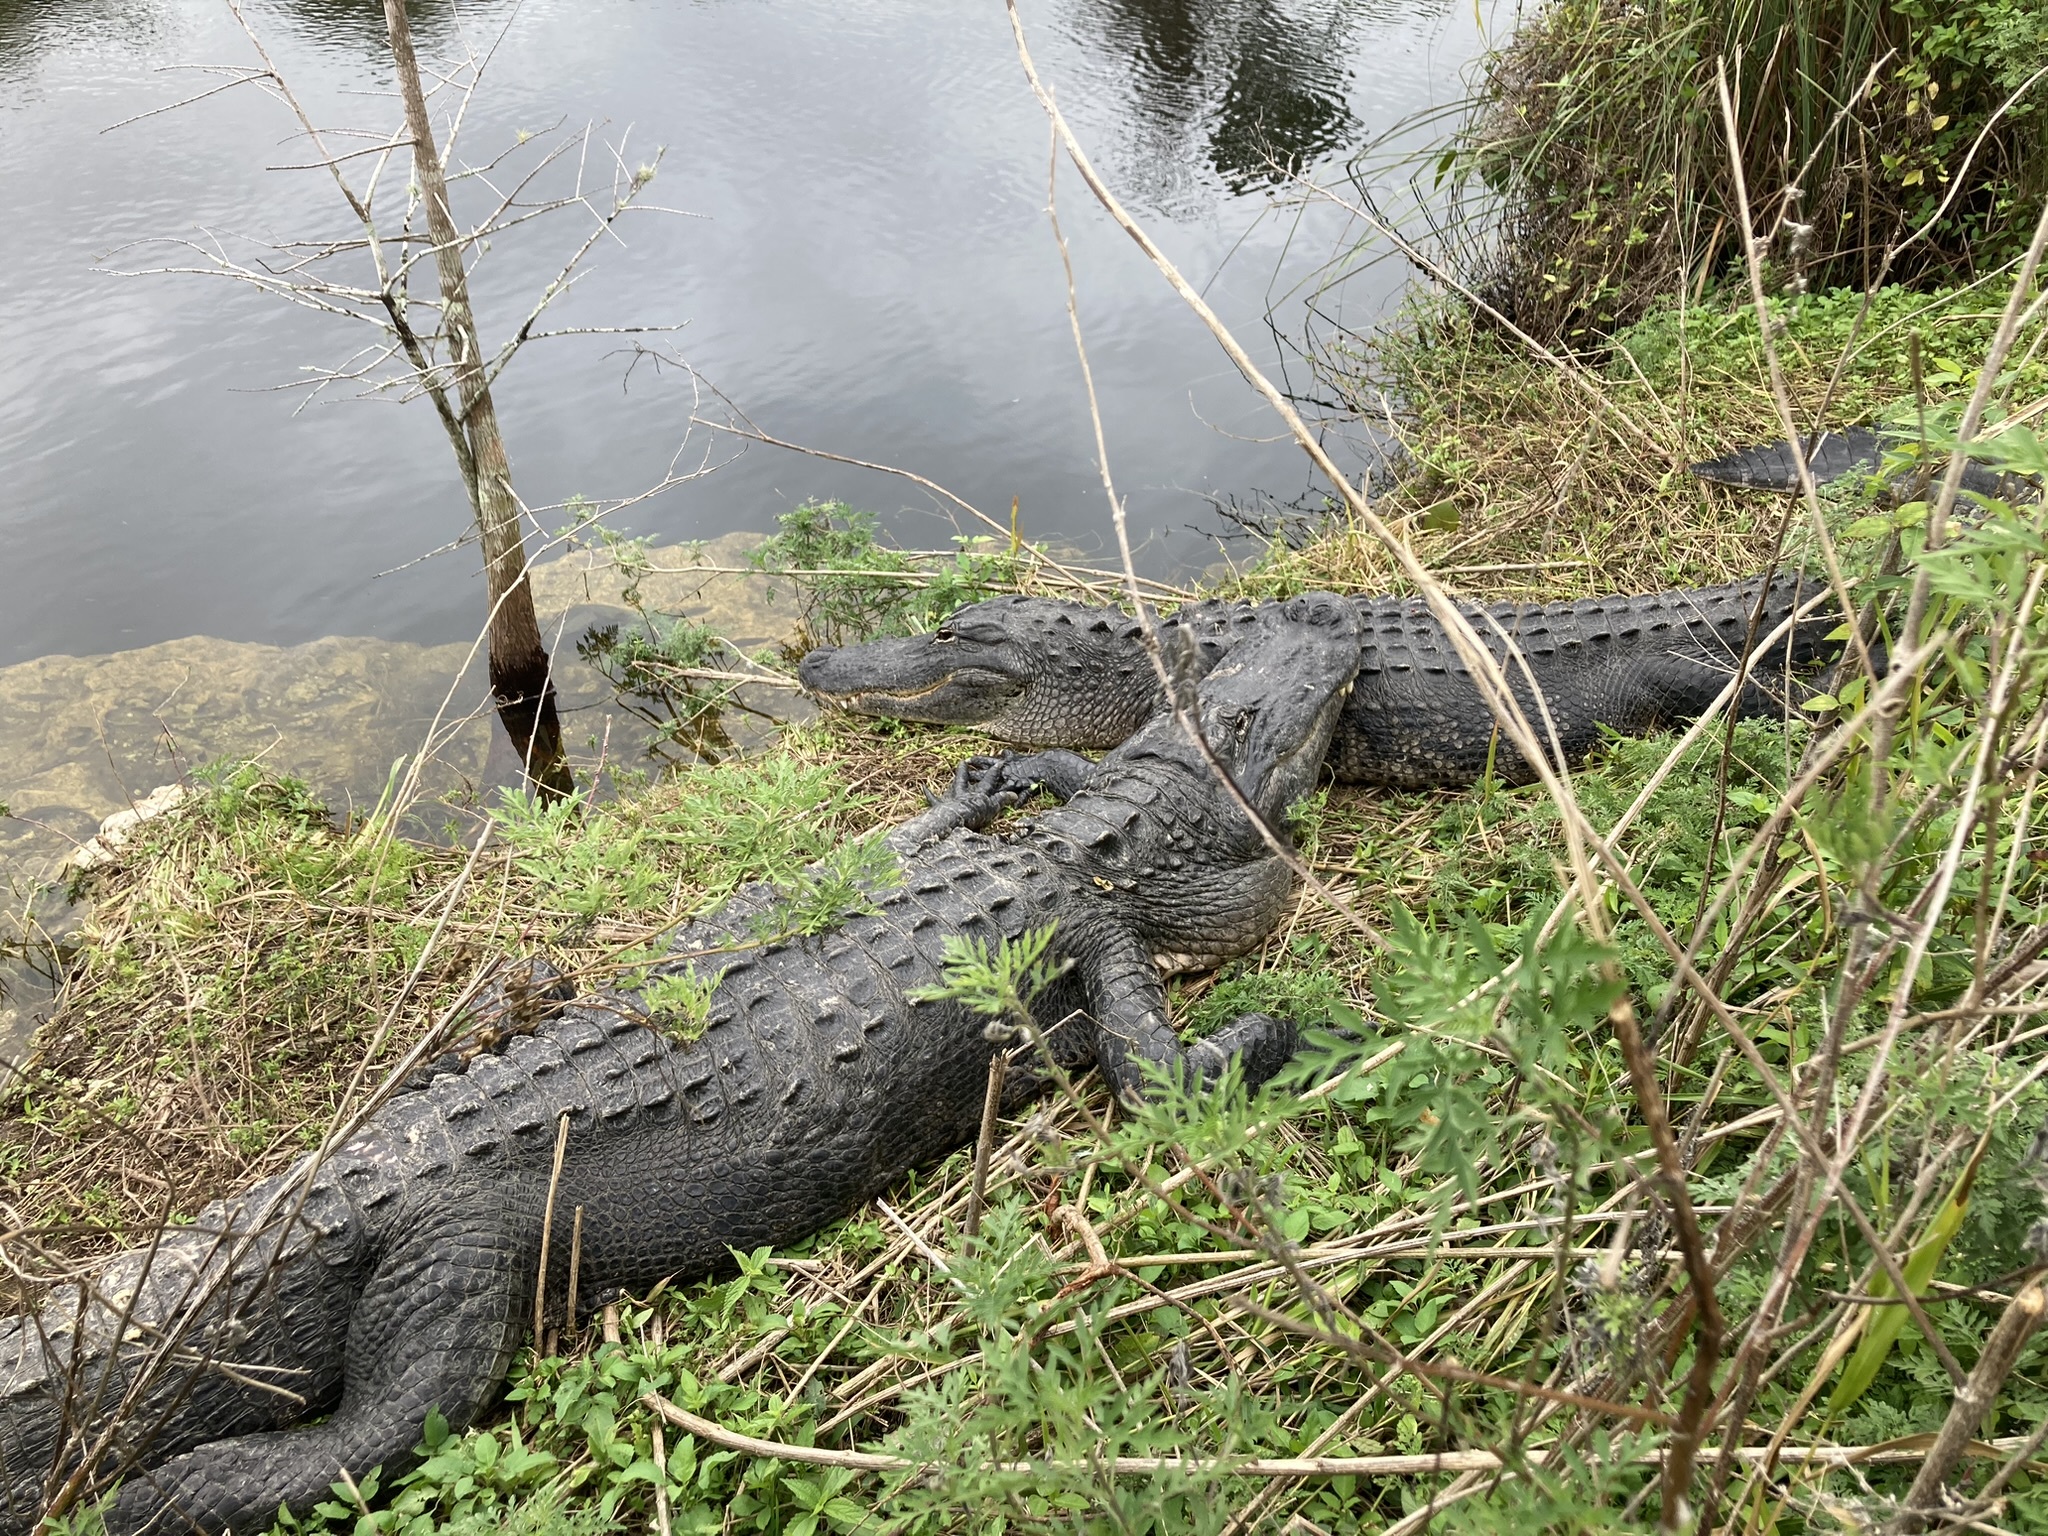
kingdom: Animalia
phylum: Chordata
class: Crocodylia
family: Alligatoridae
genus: Alligator
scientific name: Alligator mississippiensis
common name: American alligator
